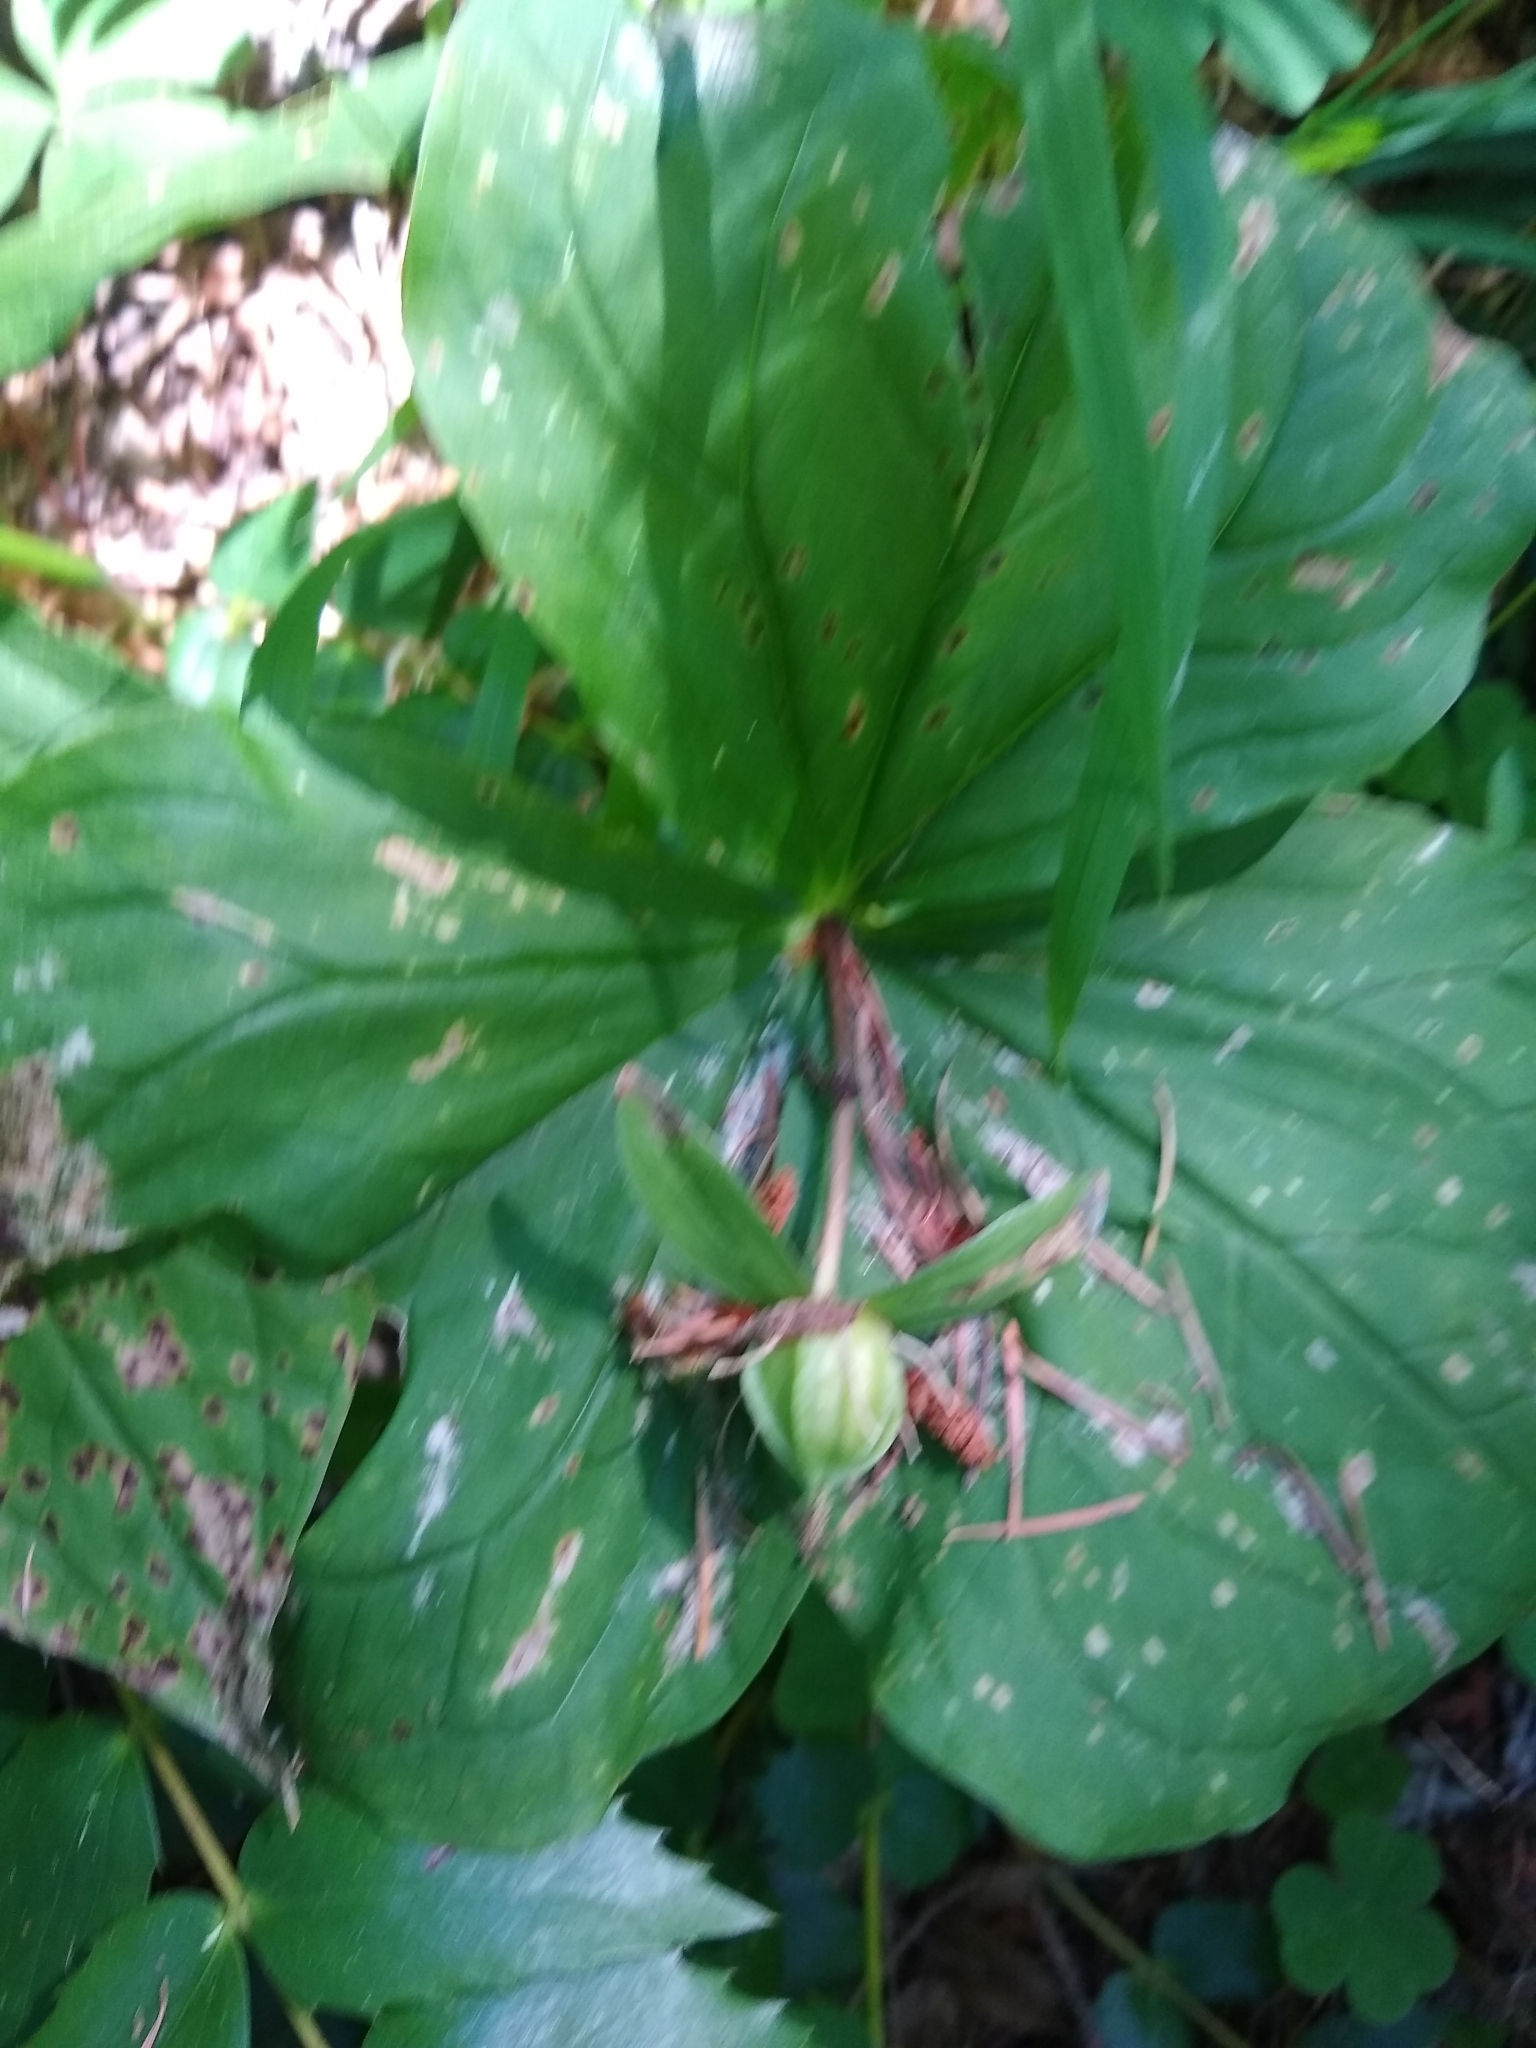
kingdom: Plantae
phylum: Tracheophyta
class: Liliopsida
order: Liliales
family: Melanthiaceae
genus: Trillium
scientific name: Trillium ovatum
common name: Pacific trillium
